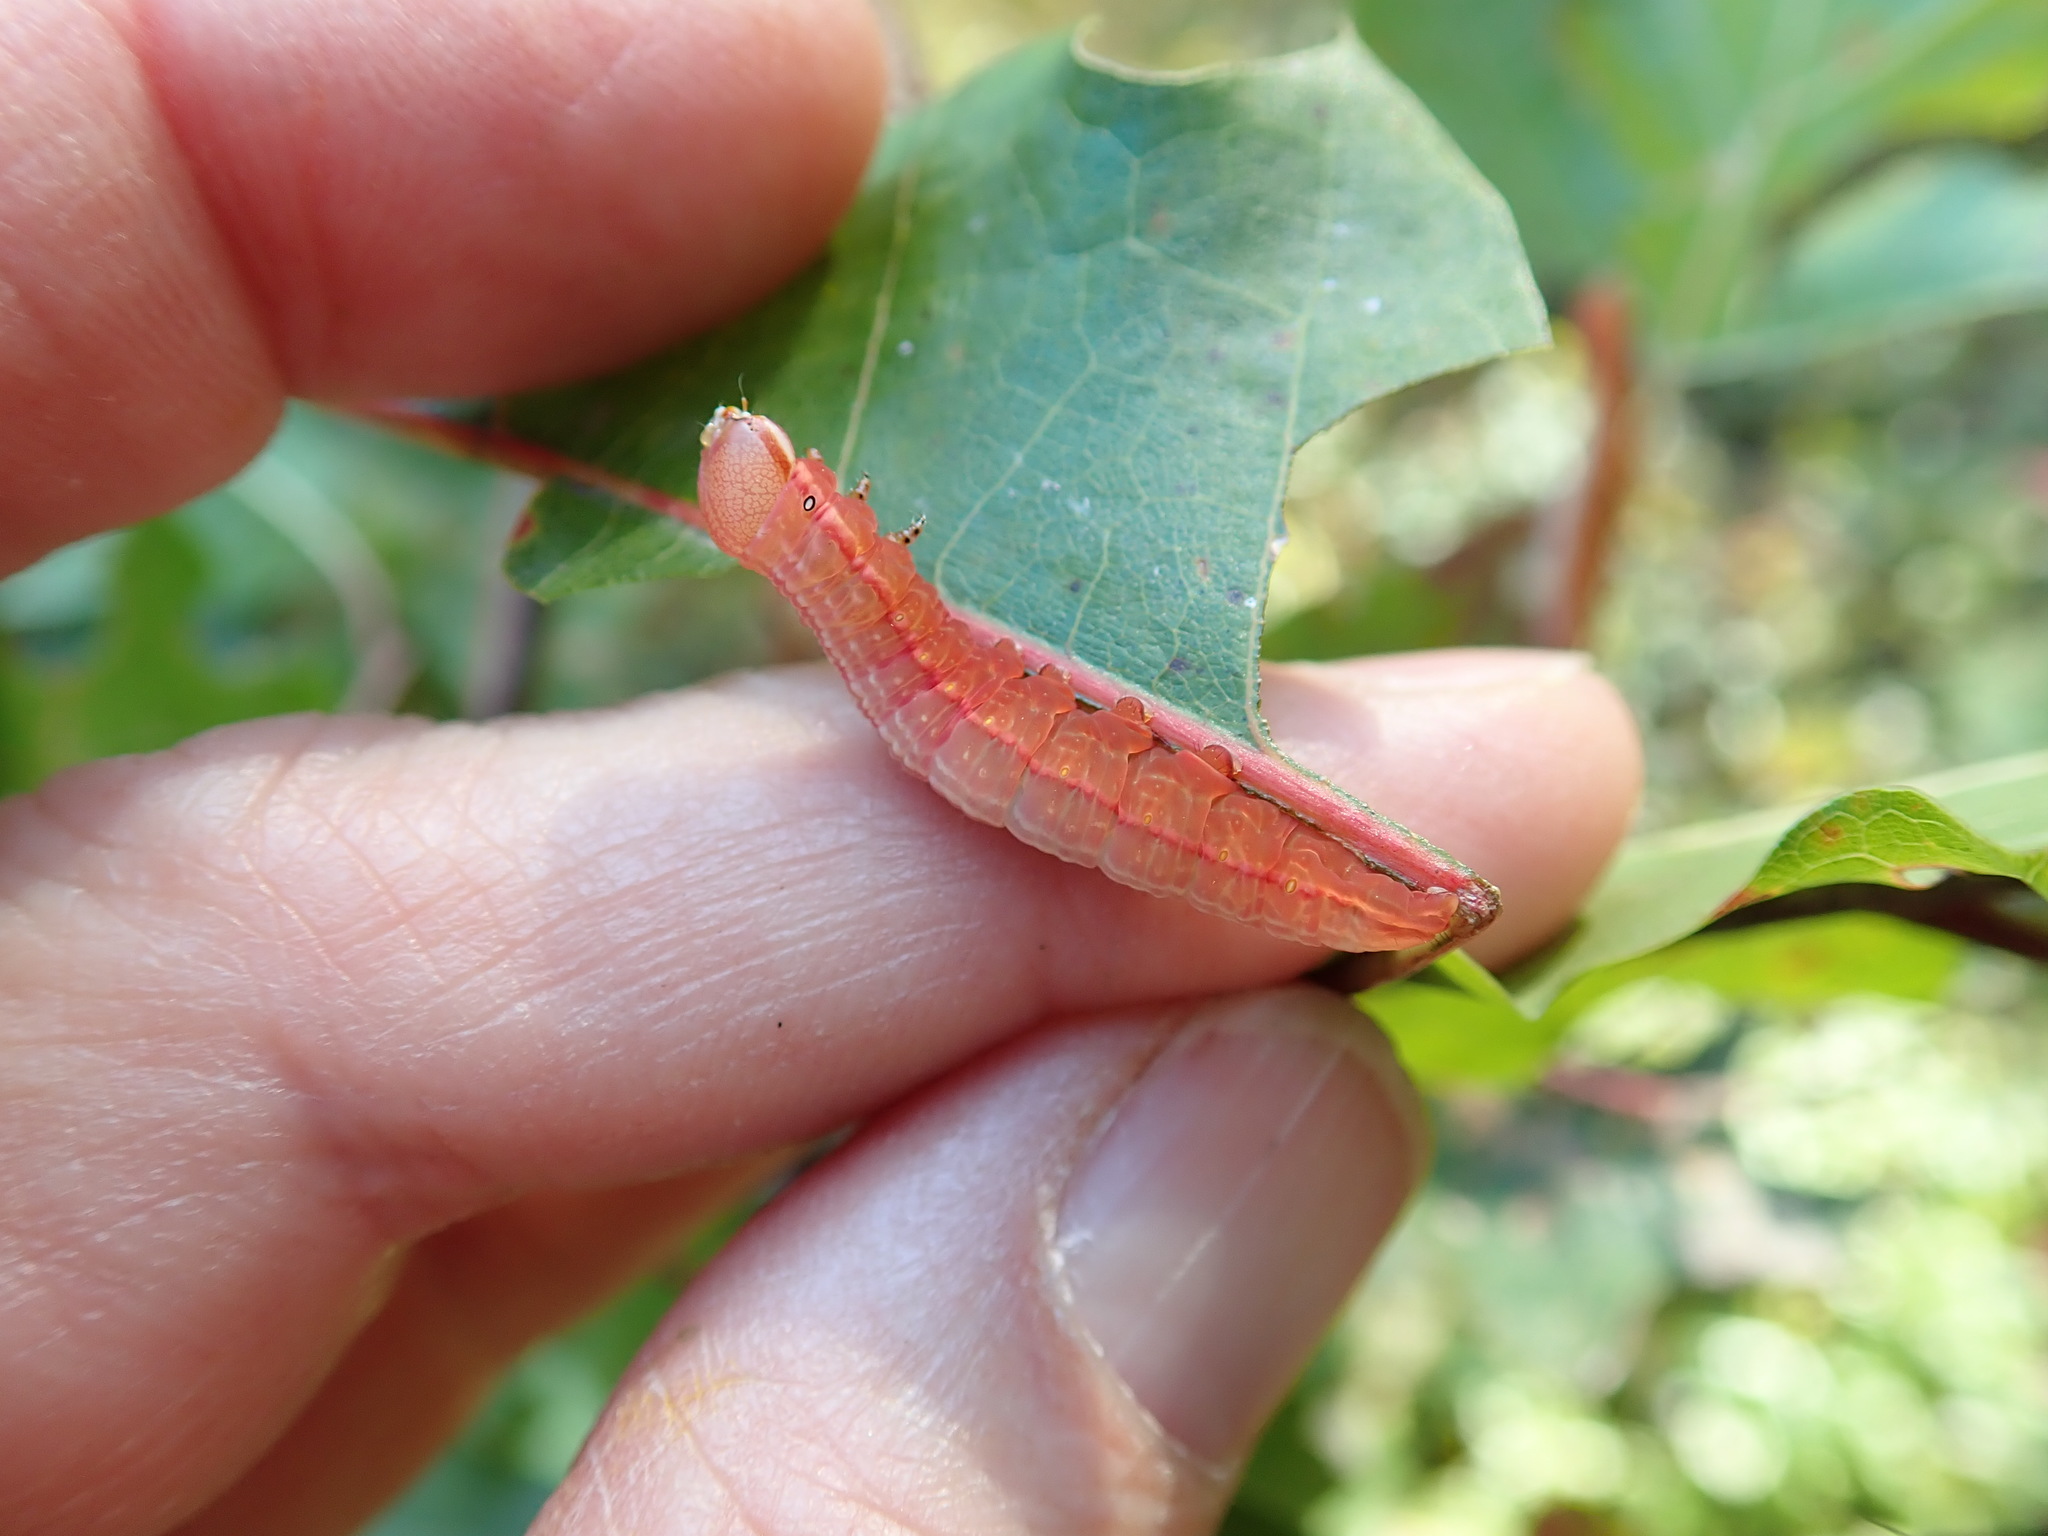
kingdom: Animalia
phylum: Arthropoda
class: Insecta
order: Lepidoptera
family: Notodontidae
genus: Peridea
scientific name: Peridea angulosa
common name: Angulose prominent
